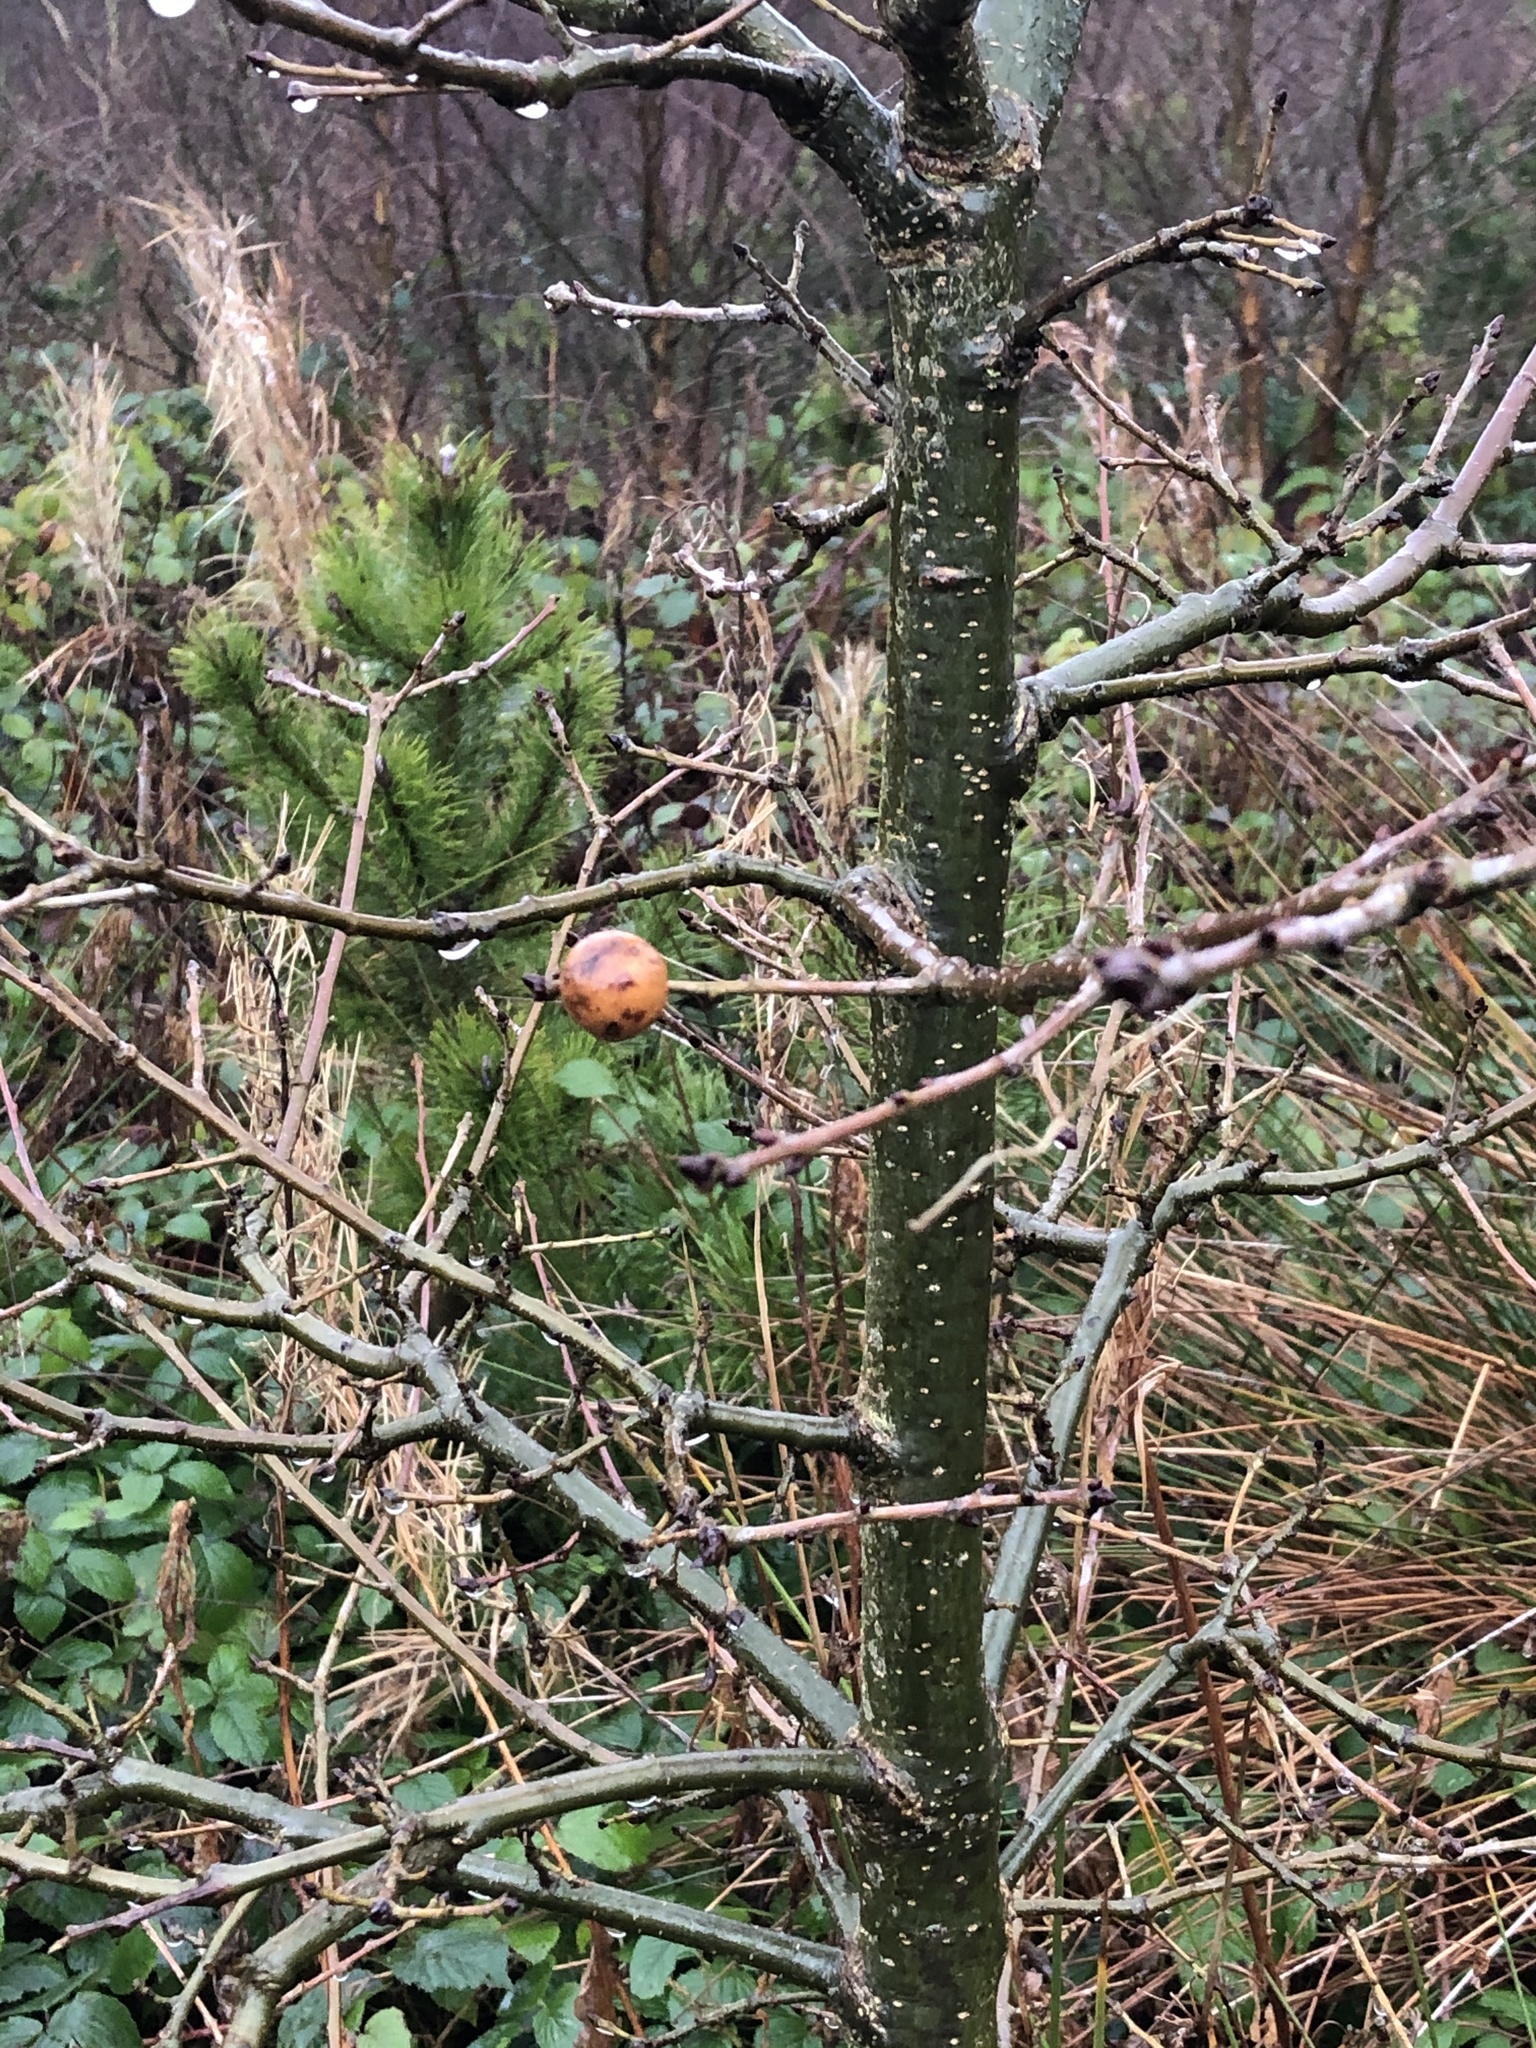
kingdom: Animalia
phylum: Arthropoda
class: Insecta
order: Hymenoptera
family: Cynipidae
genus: Andricus
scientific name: Andricus kollari
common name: Marble gall
